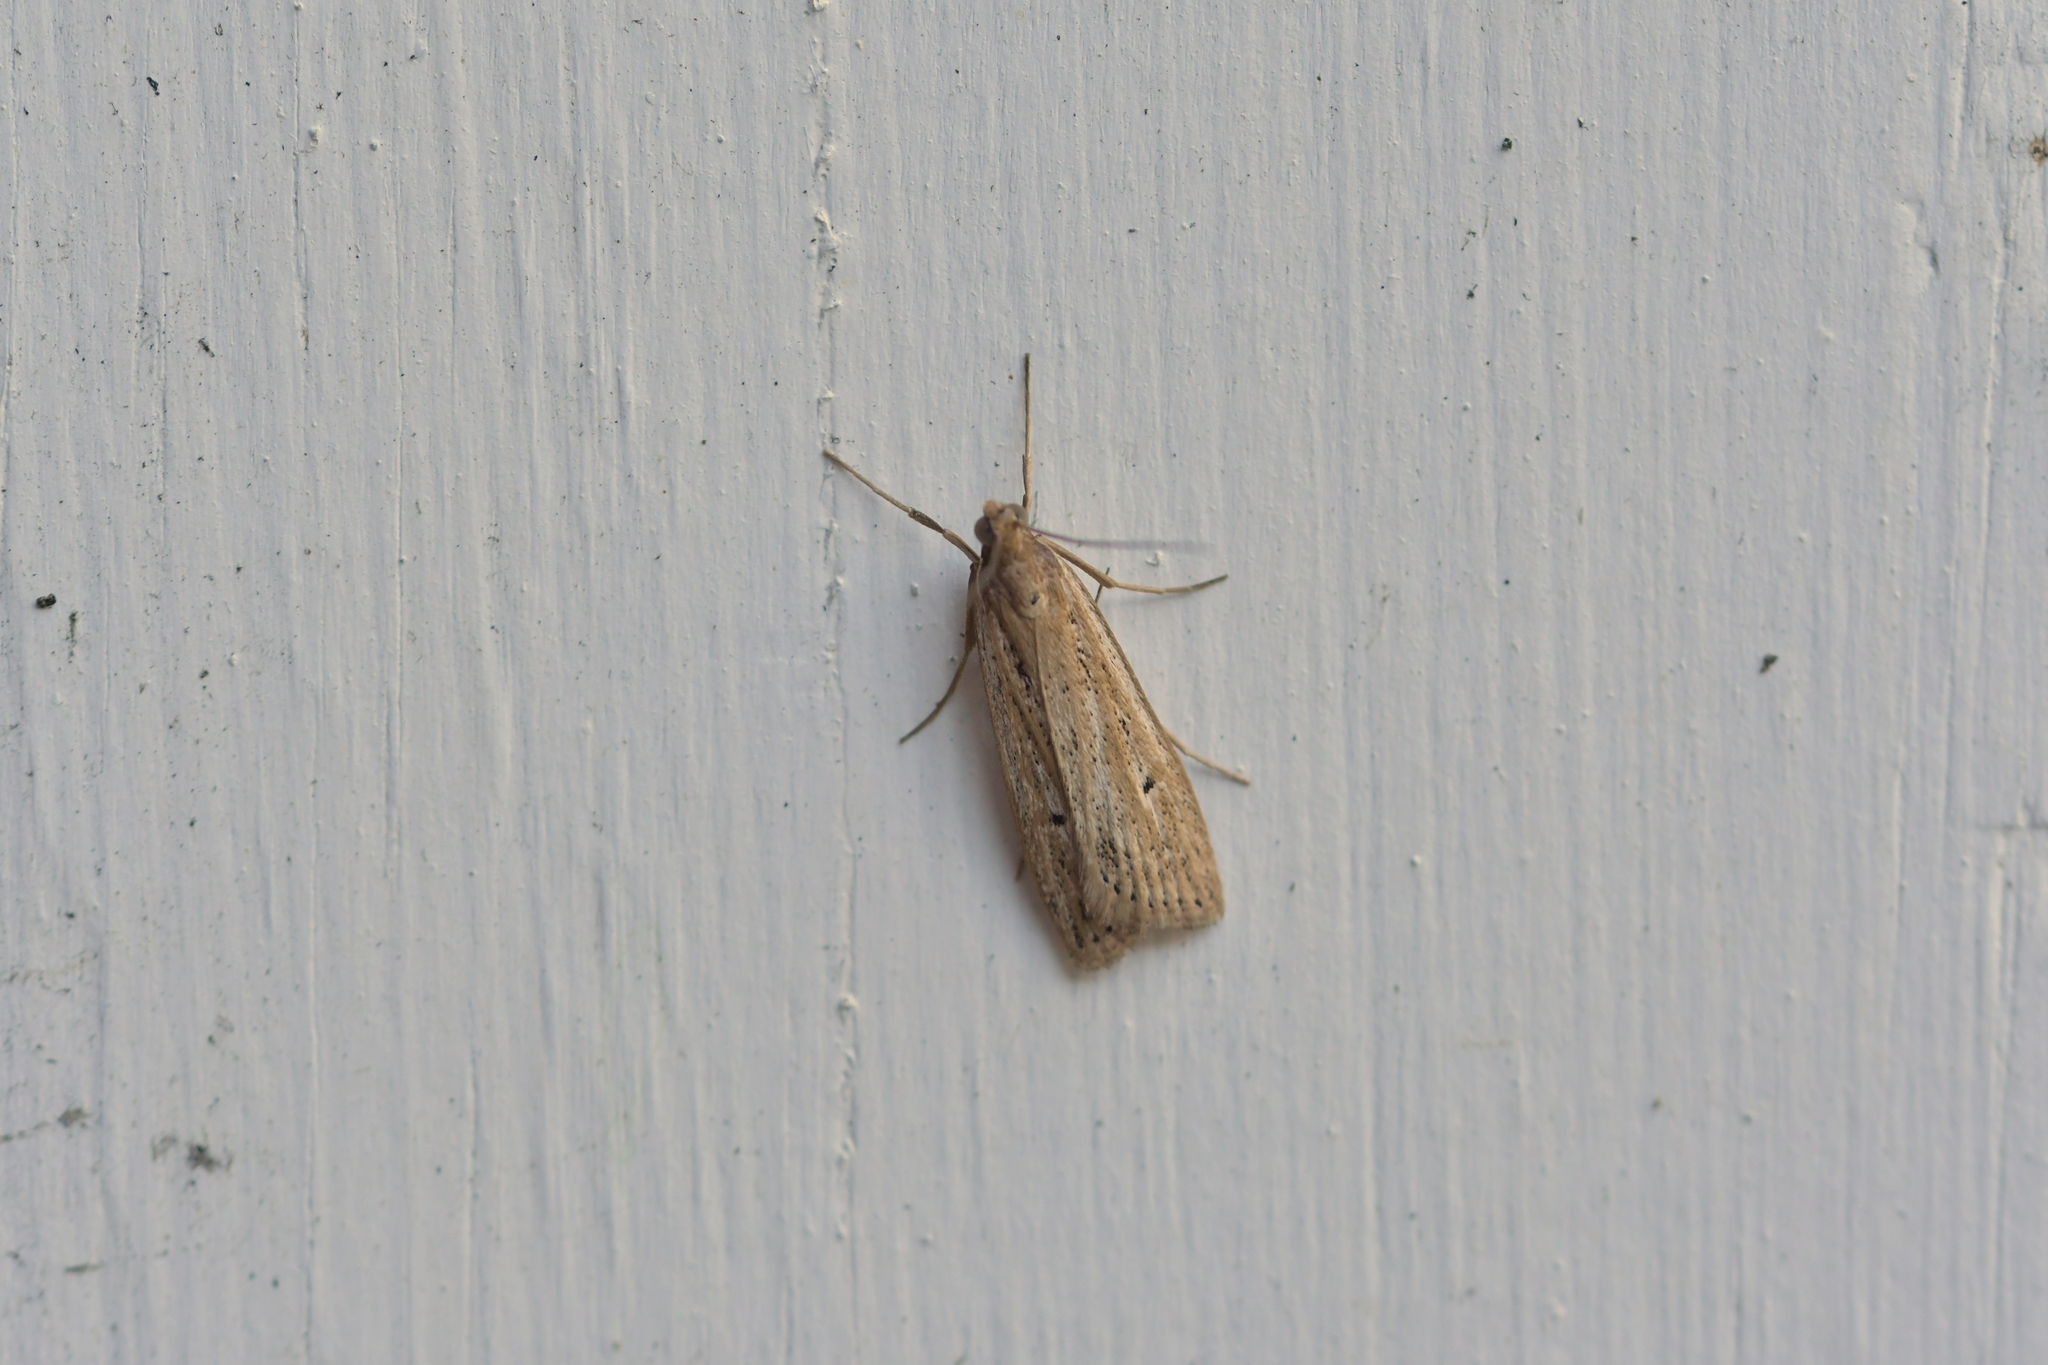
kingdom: Animalia
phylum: Arthropoda
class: Insecta
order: Lepidoptera
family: Crambidae
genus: Eudonia
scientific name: Eudonia sabulosella
